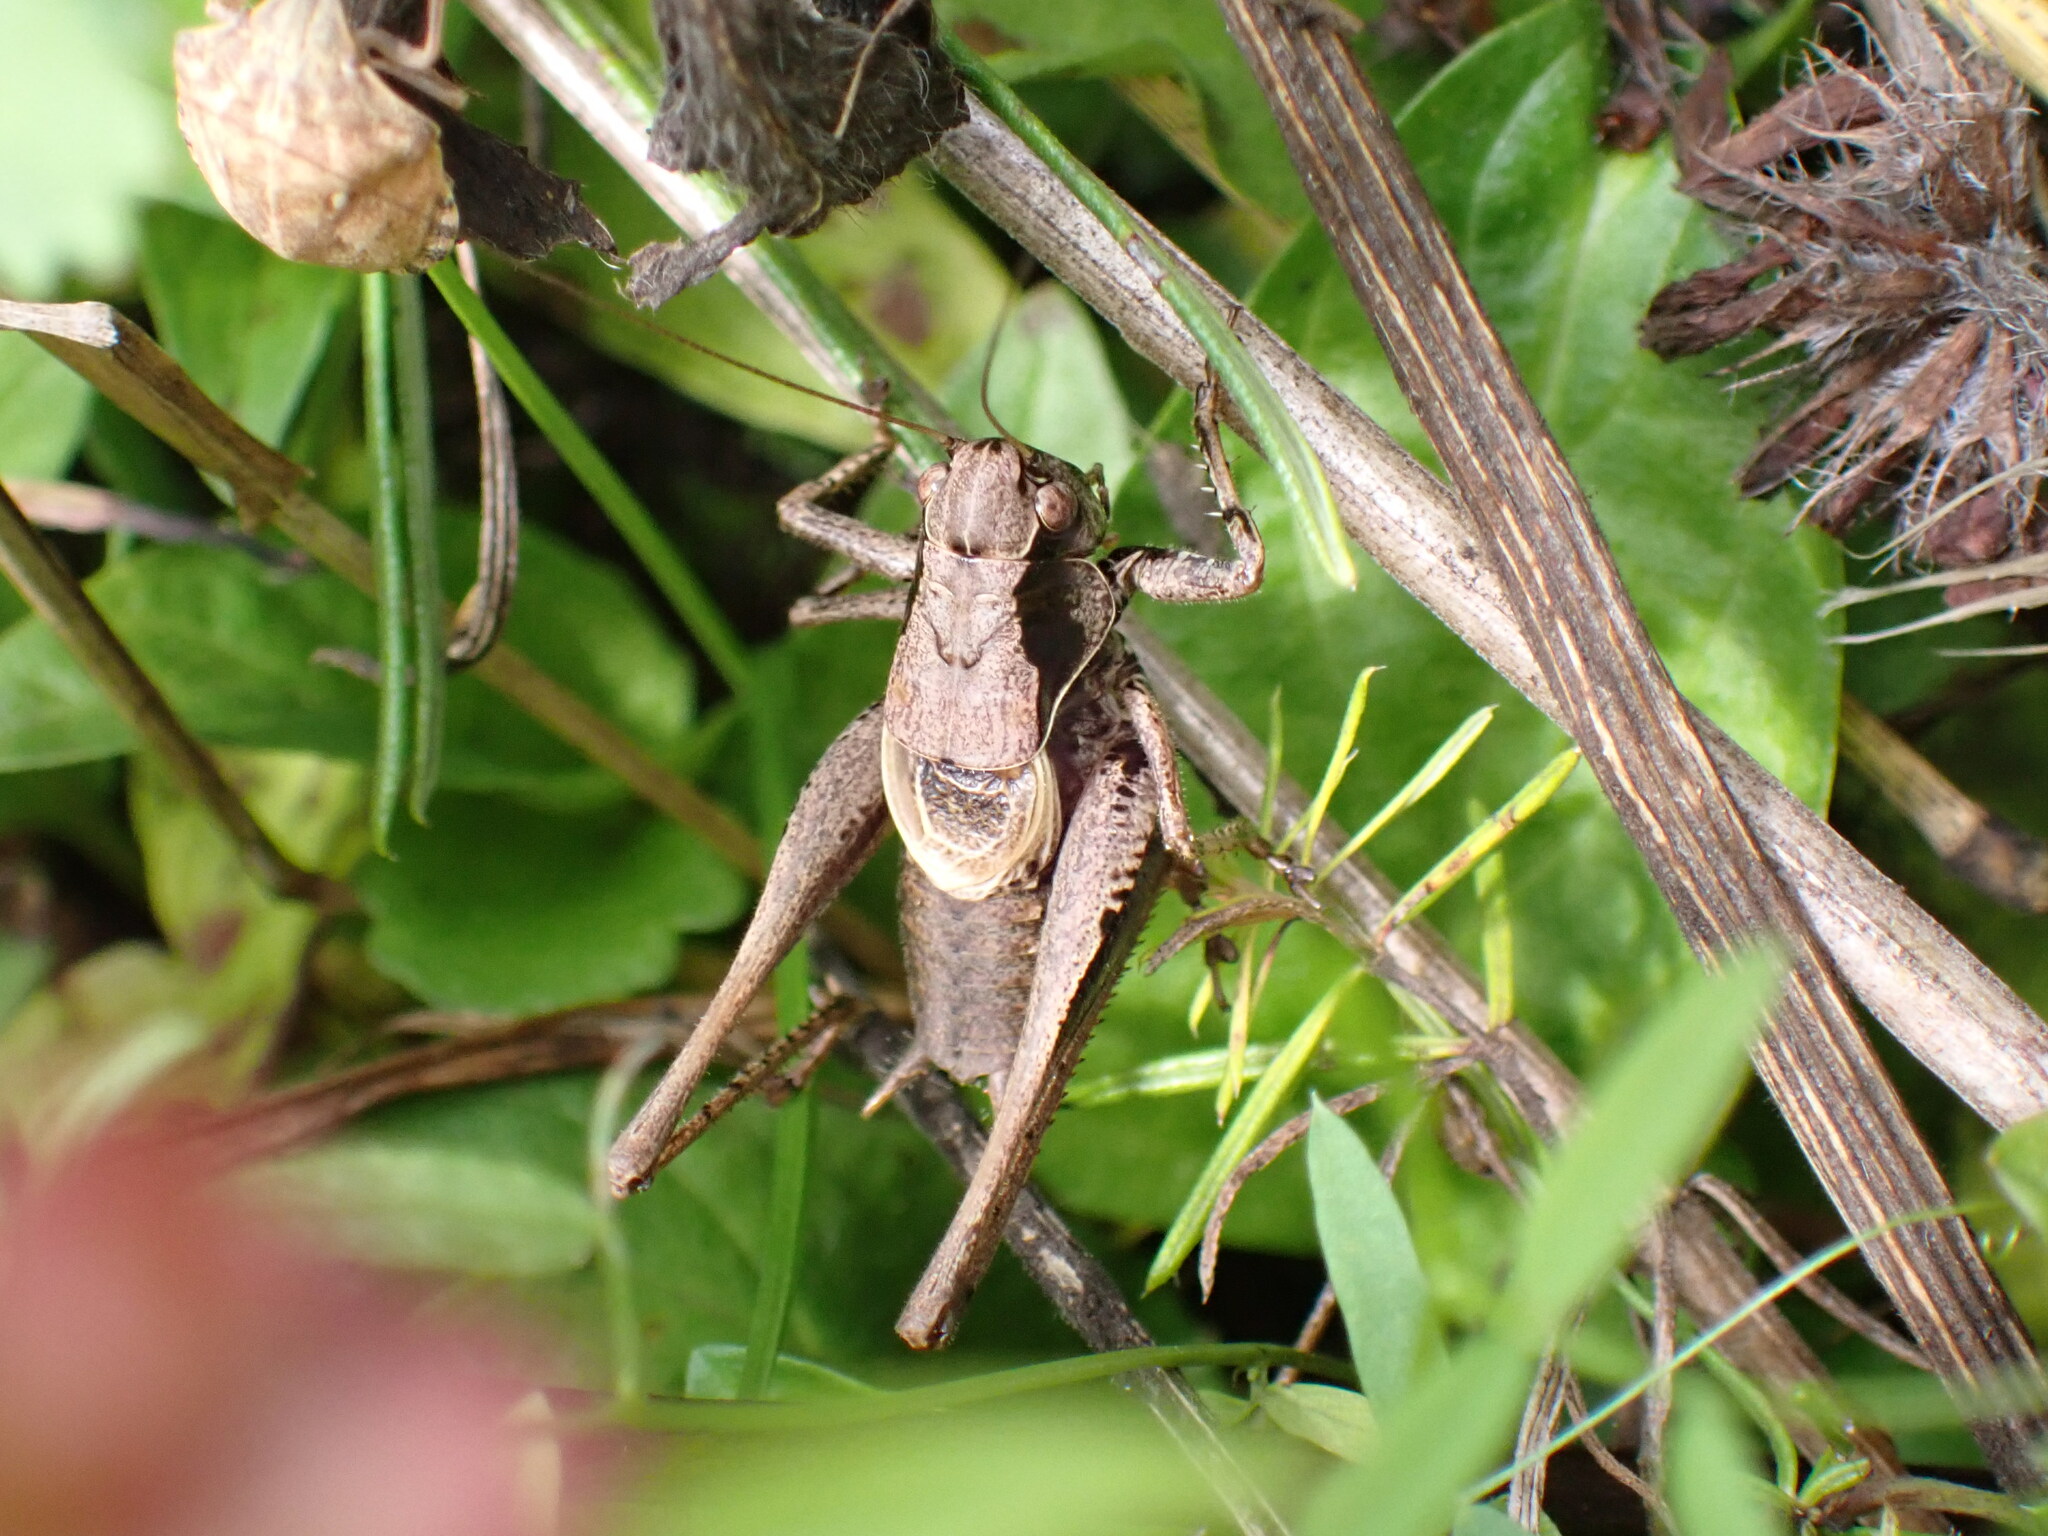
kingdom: Animalia
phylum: Arthropoda
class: Insecta
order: Orthoptera
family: Tettigoniidae
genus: Pholidoptera
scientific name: Pholidoptera griseoaptera
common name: Dark bush-cricket
